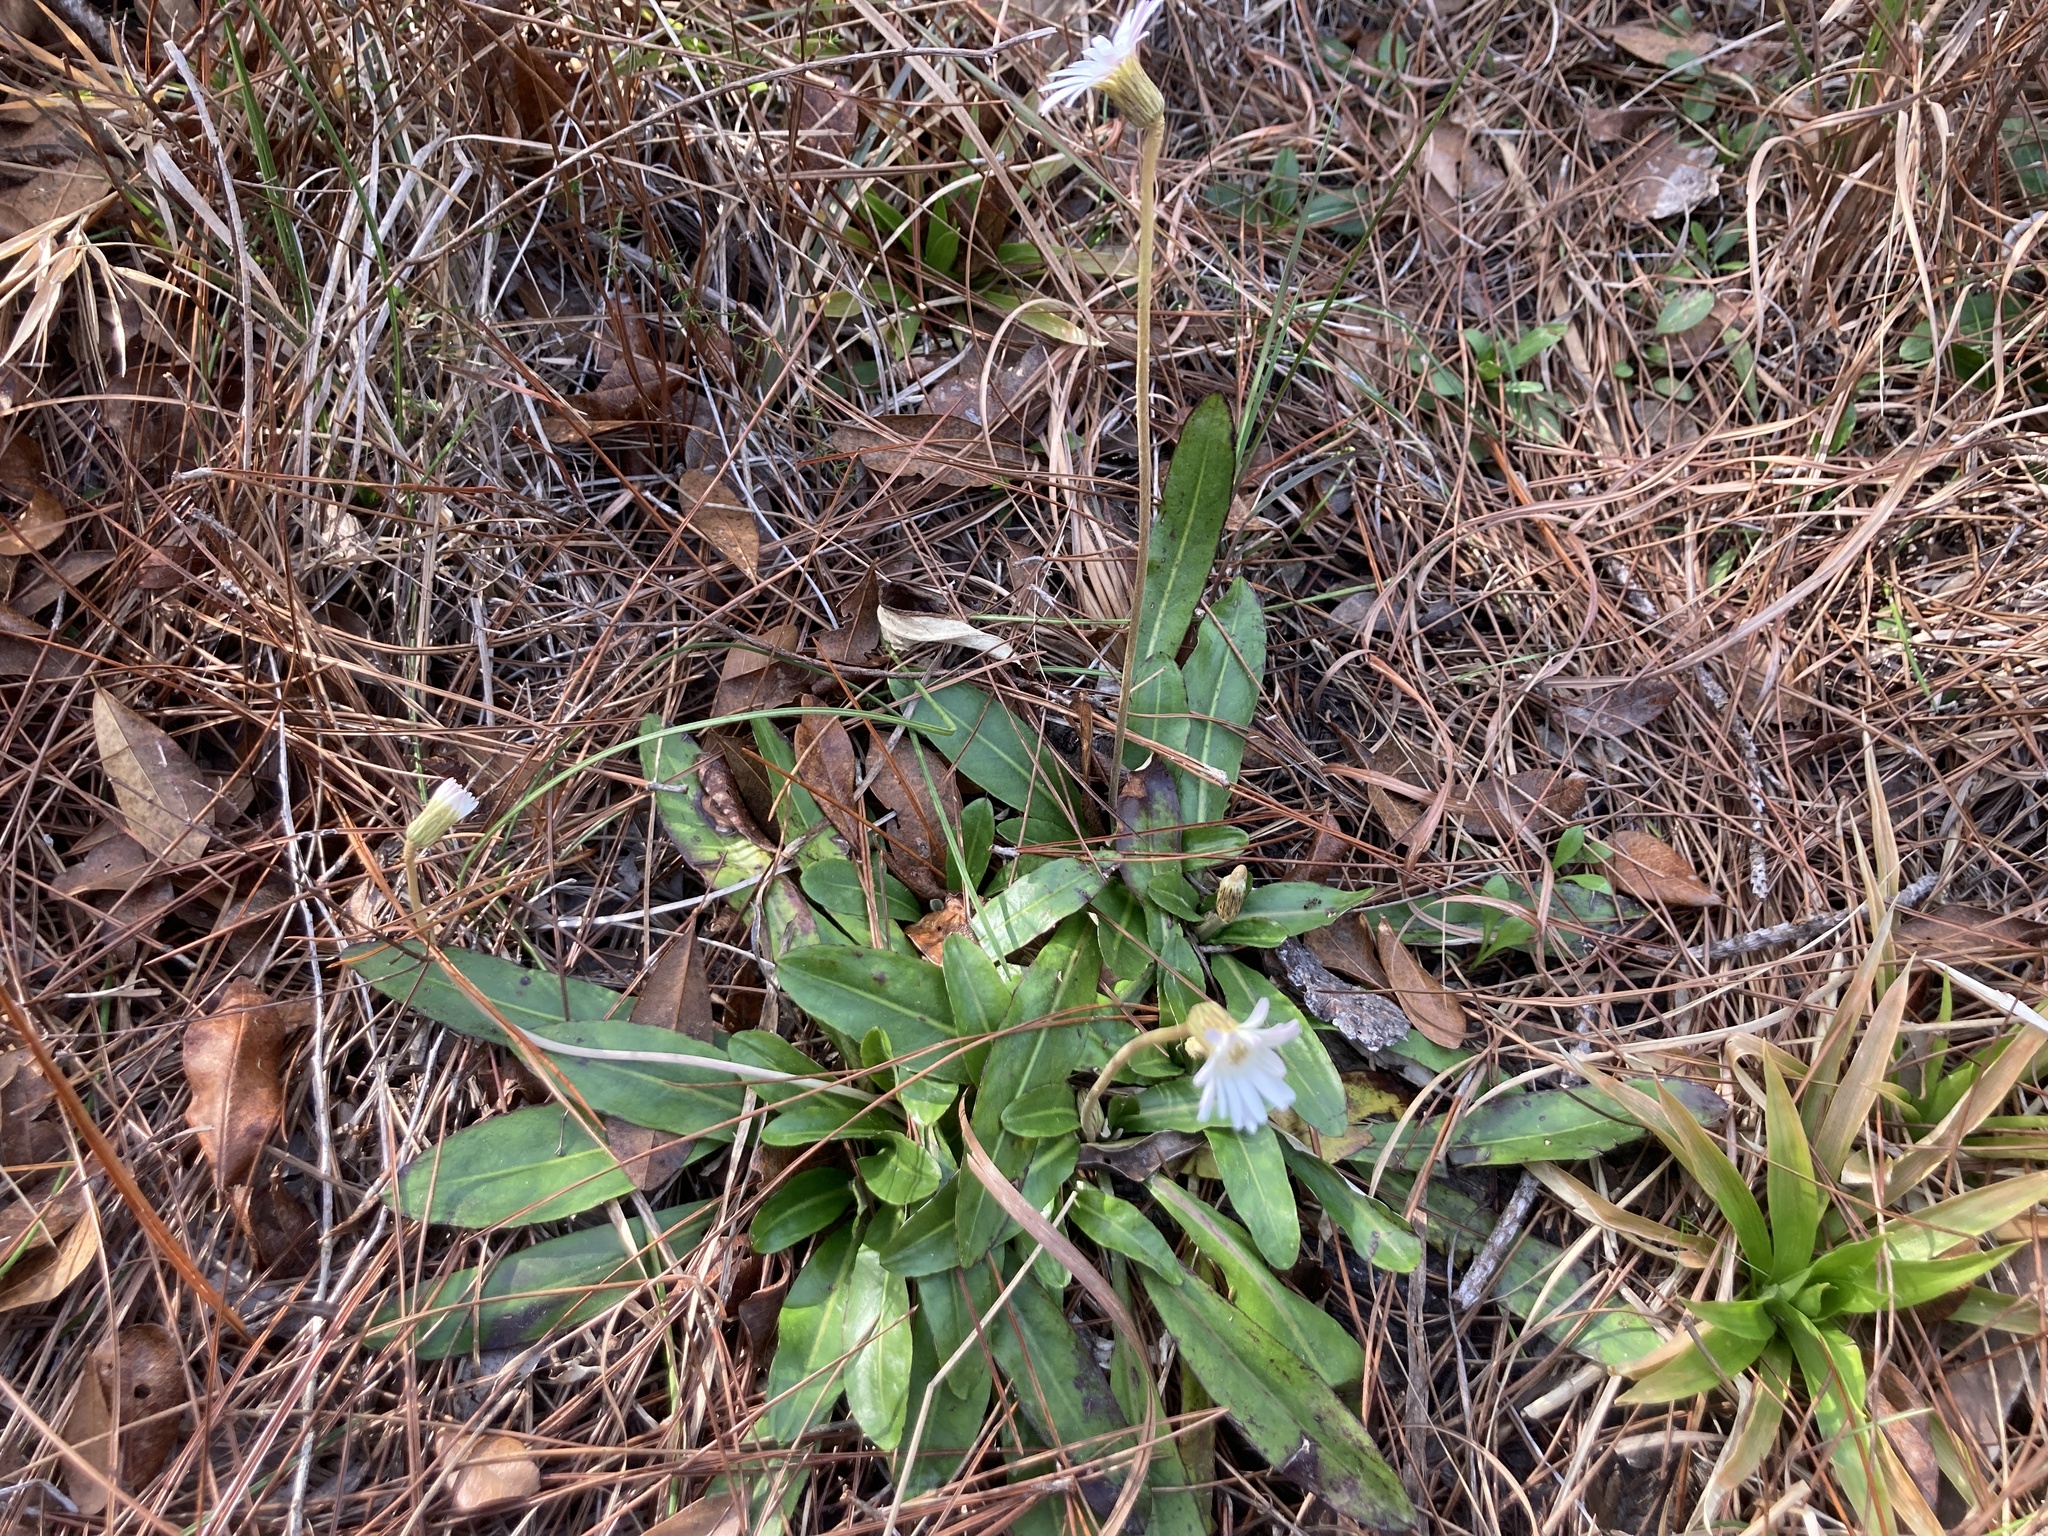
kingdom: Plantae
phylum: Tracheophyta
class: Magnoliopsida
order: Asterales
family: Asteraceae
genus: Chaptalia
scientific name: Chaptalia tomentosa
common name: Woolly sunbonnet
